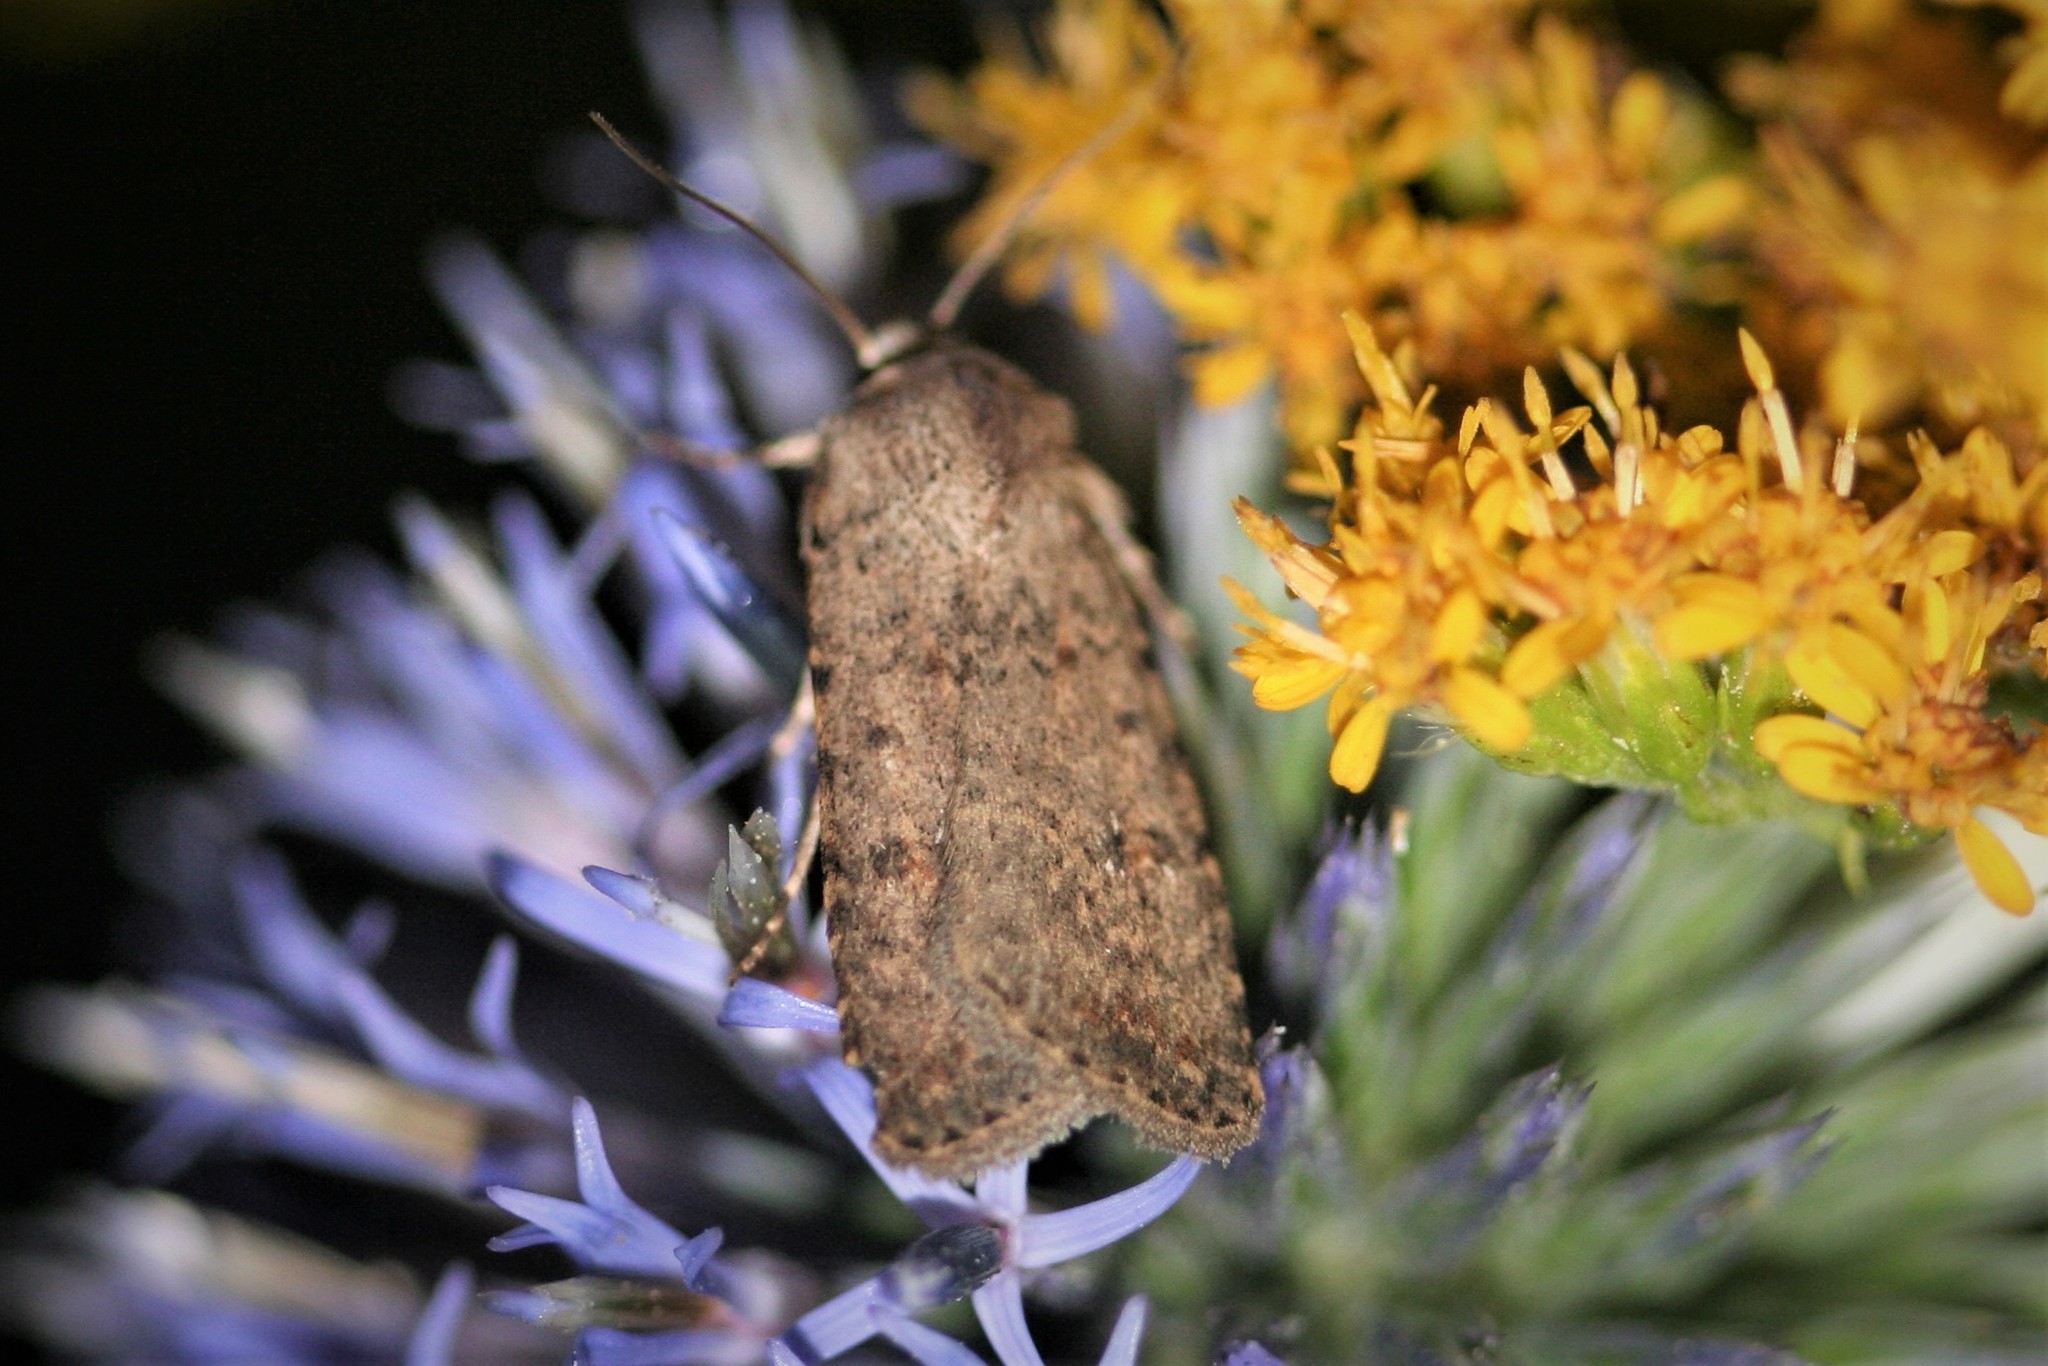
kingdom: Animalia
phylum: Arthropoda
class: Insecta
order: Lepidoptera
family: Noctuidae
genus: Caradrina
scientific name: Caradrina clavipalpis
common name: Pale mottled willow
